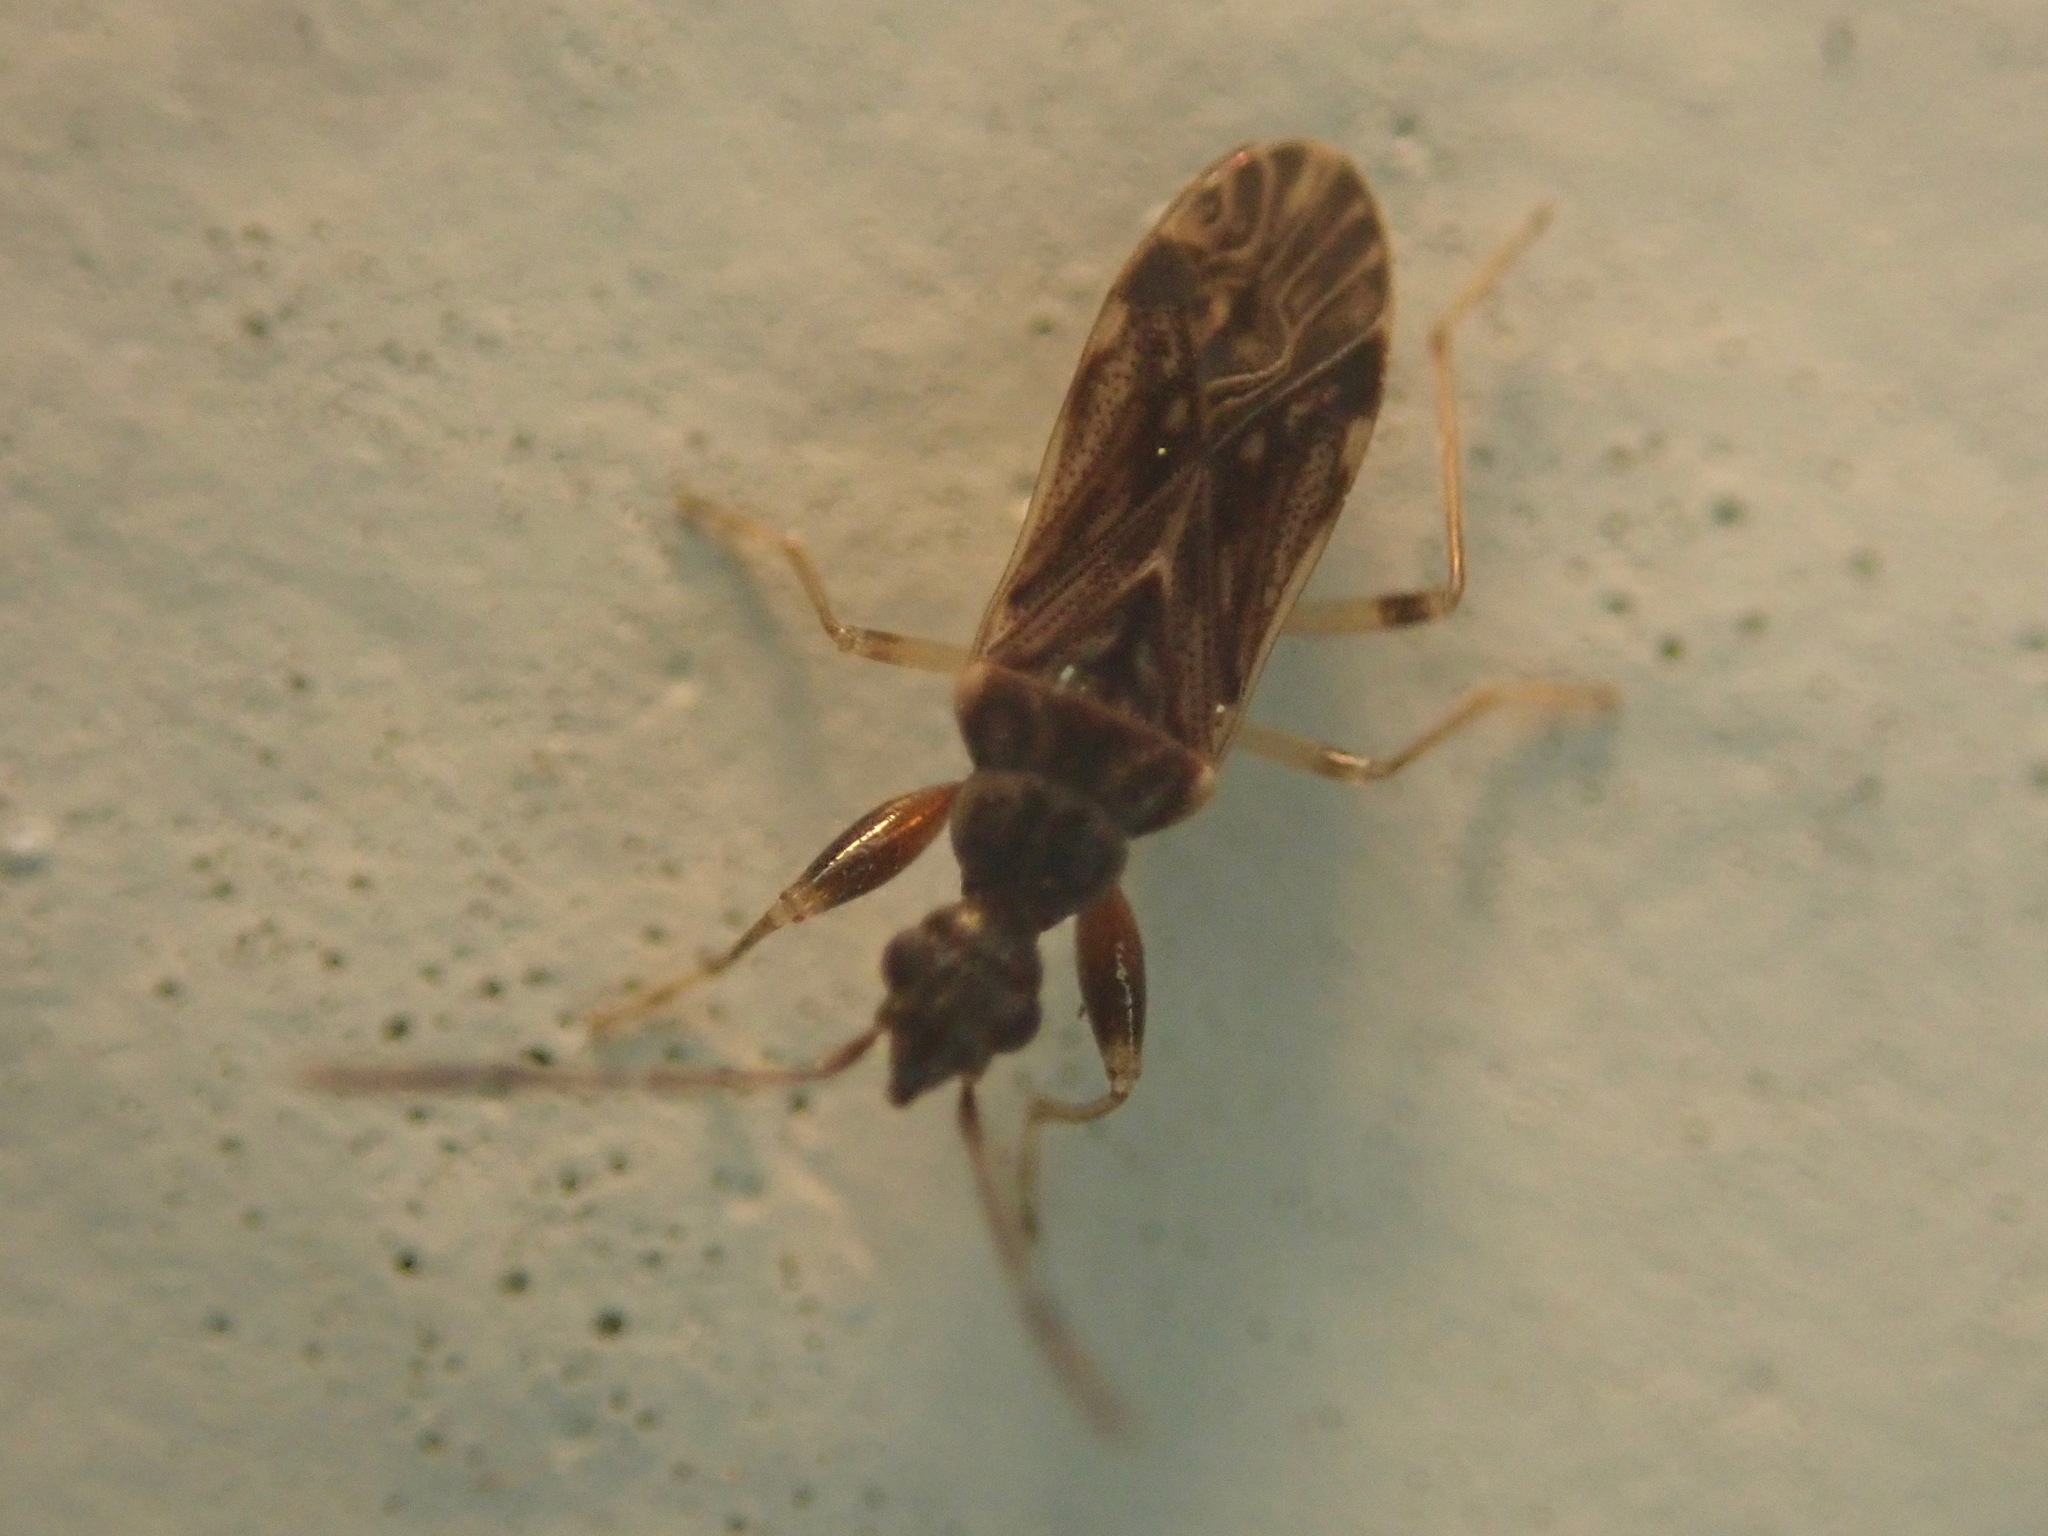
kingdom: Animalia
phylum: Arthropoda
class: Insecta
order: Hemiptera
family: Rhyparochromidae
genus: Heraeus
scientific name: Heraeus plebejus
